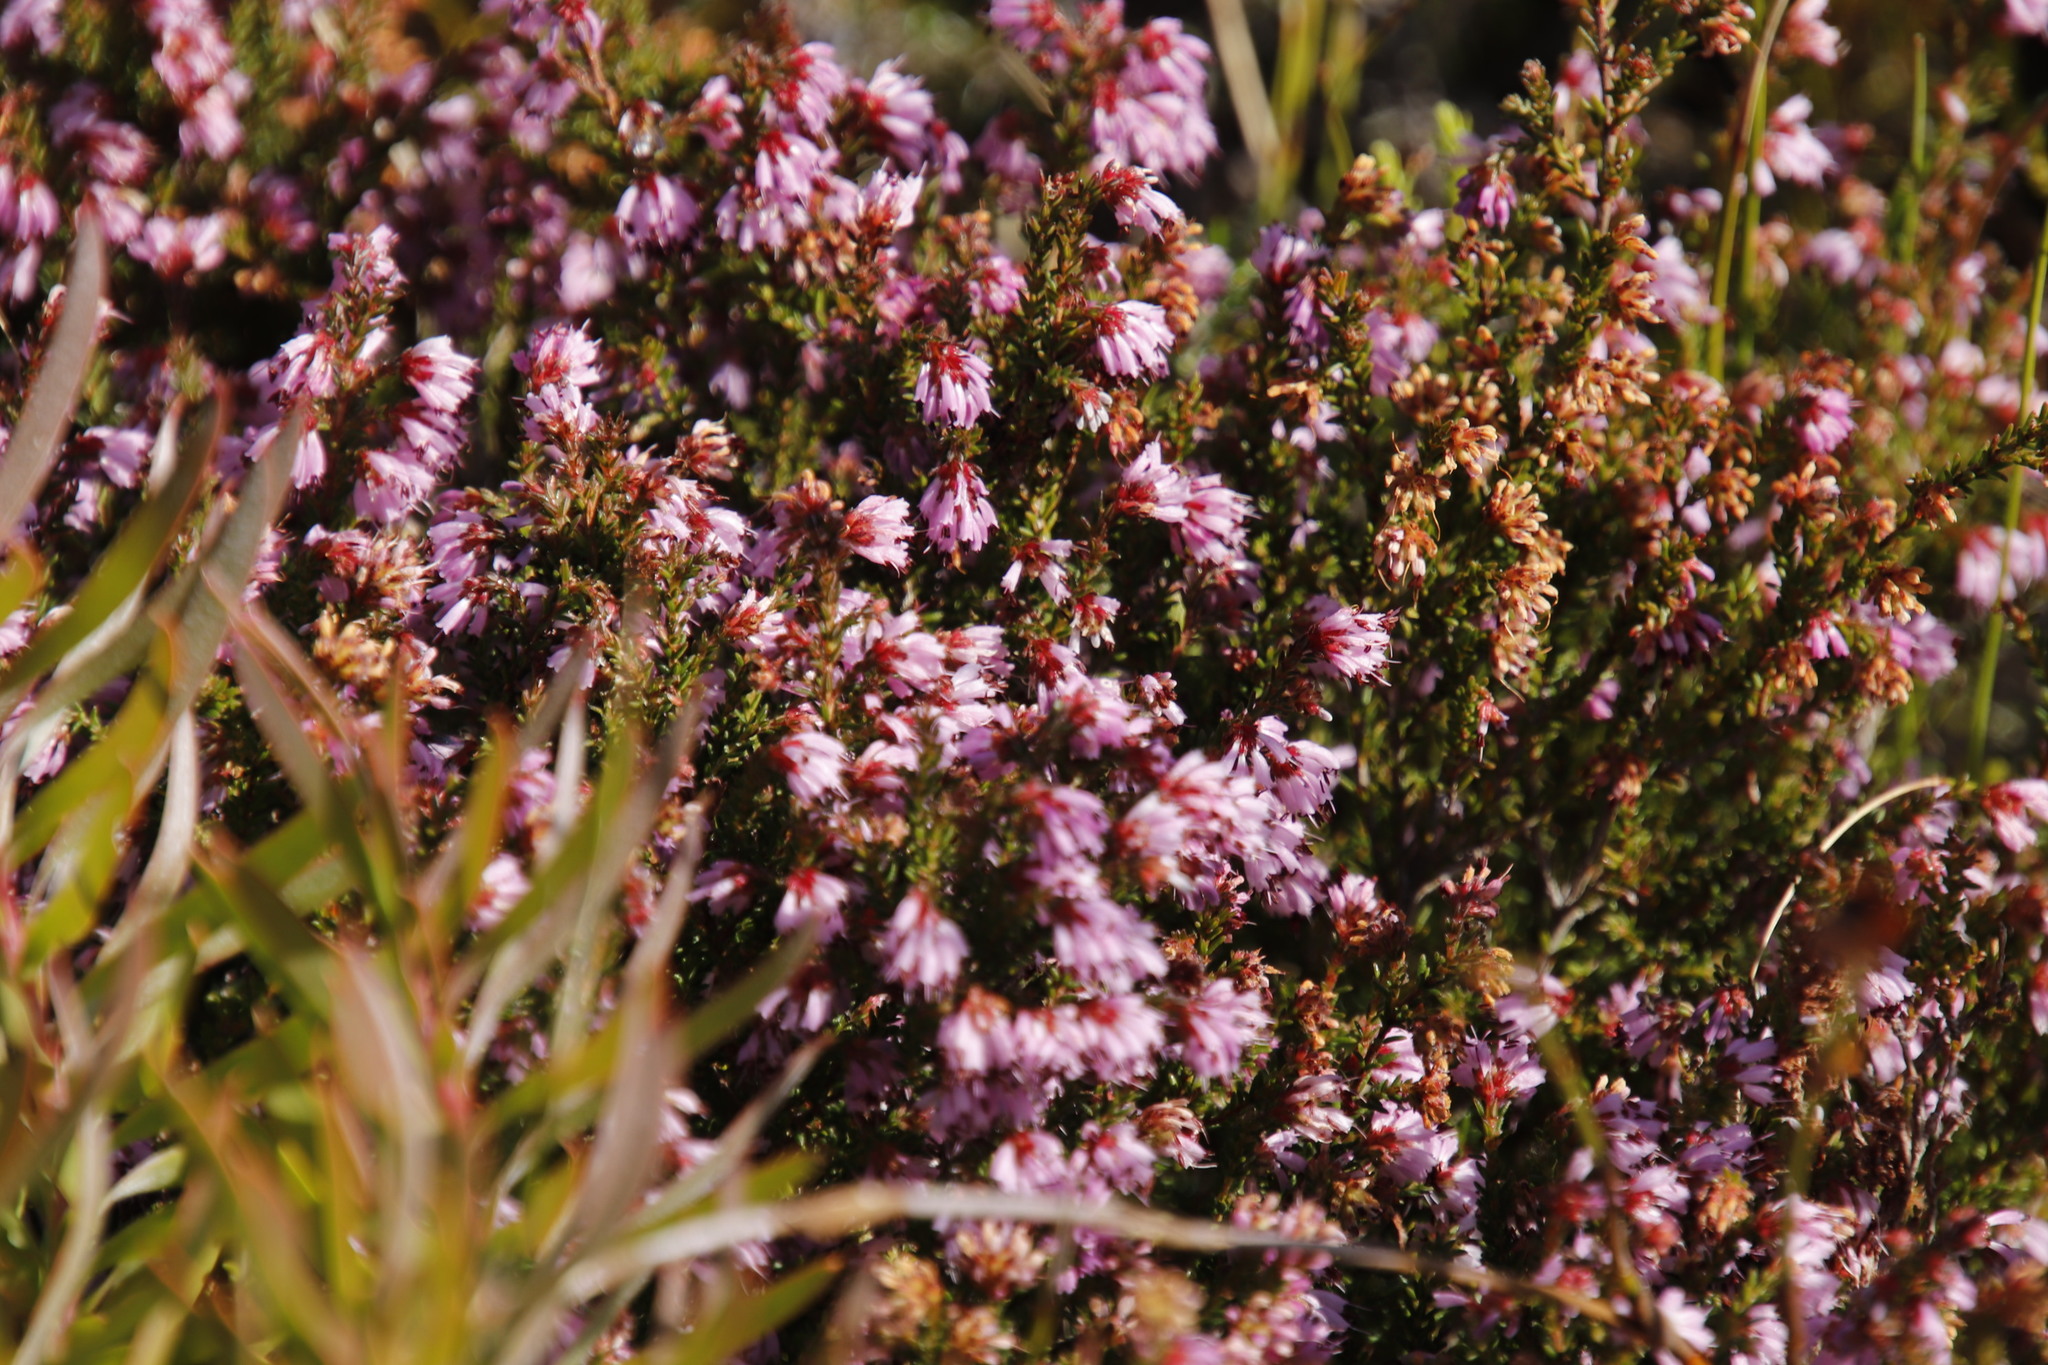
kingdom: Plantae
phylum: Tracheophyta
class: Magnoliopsida
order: Ericales
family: Ericaceae
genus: Erica
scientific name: Erica glabella
